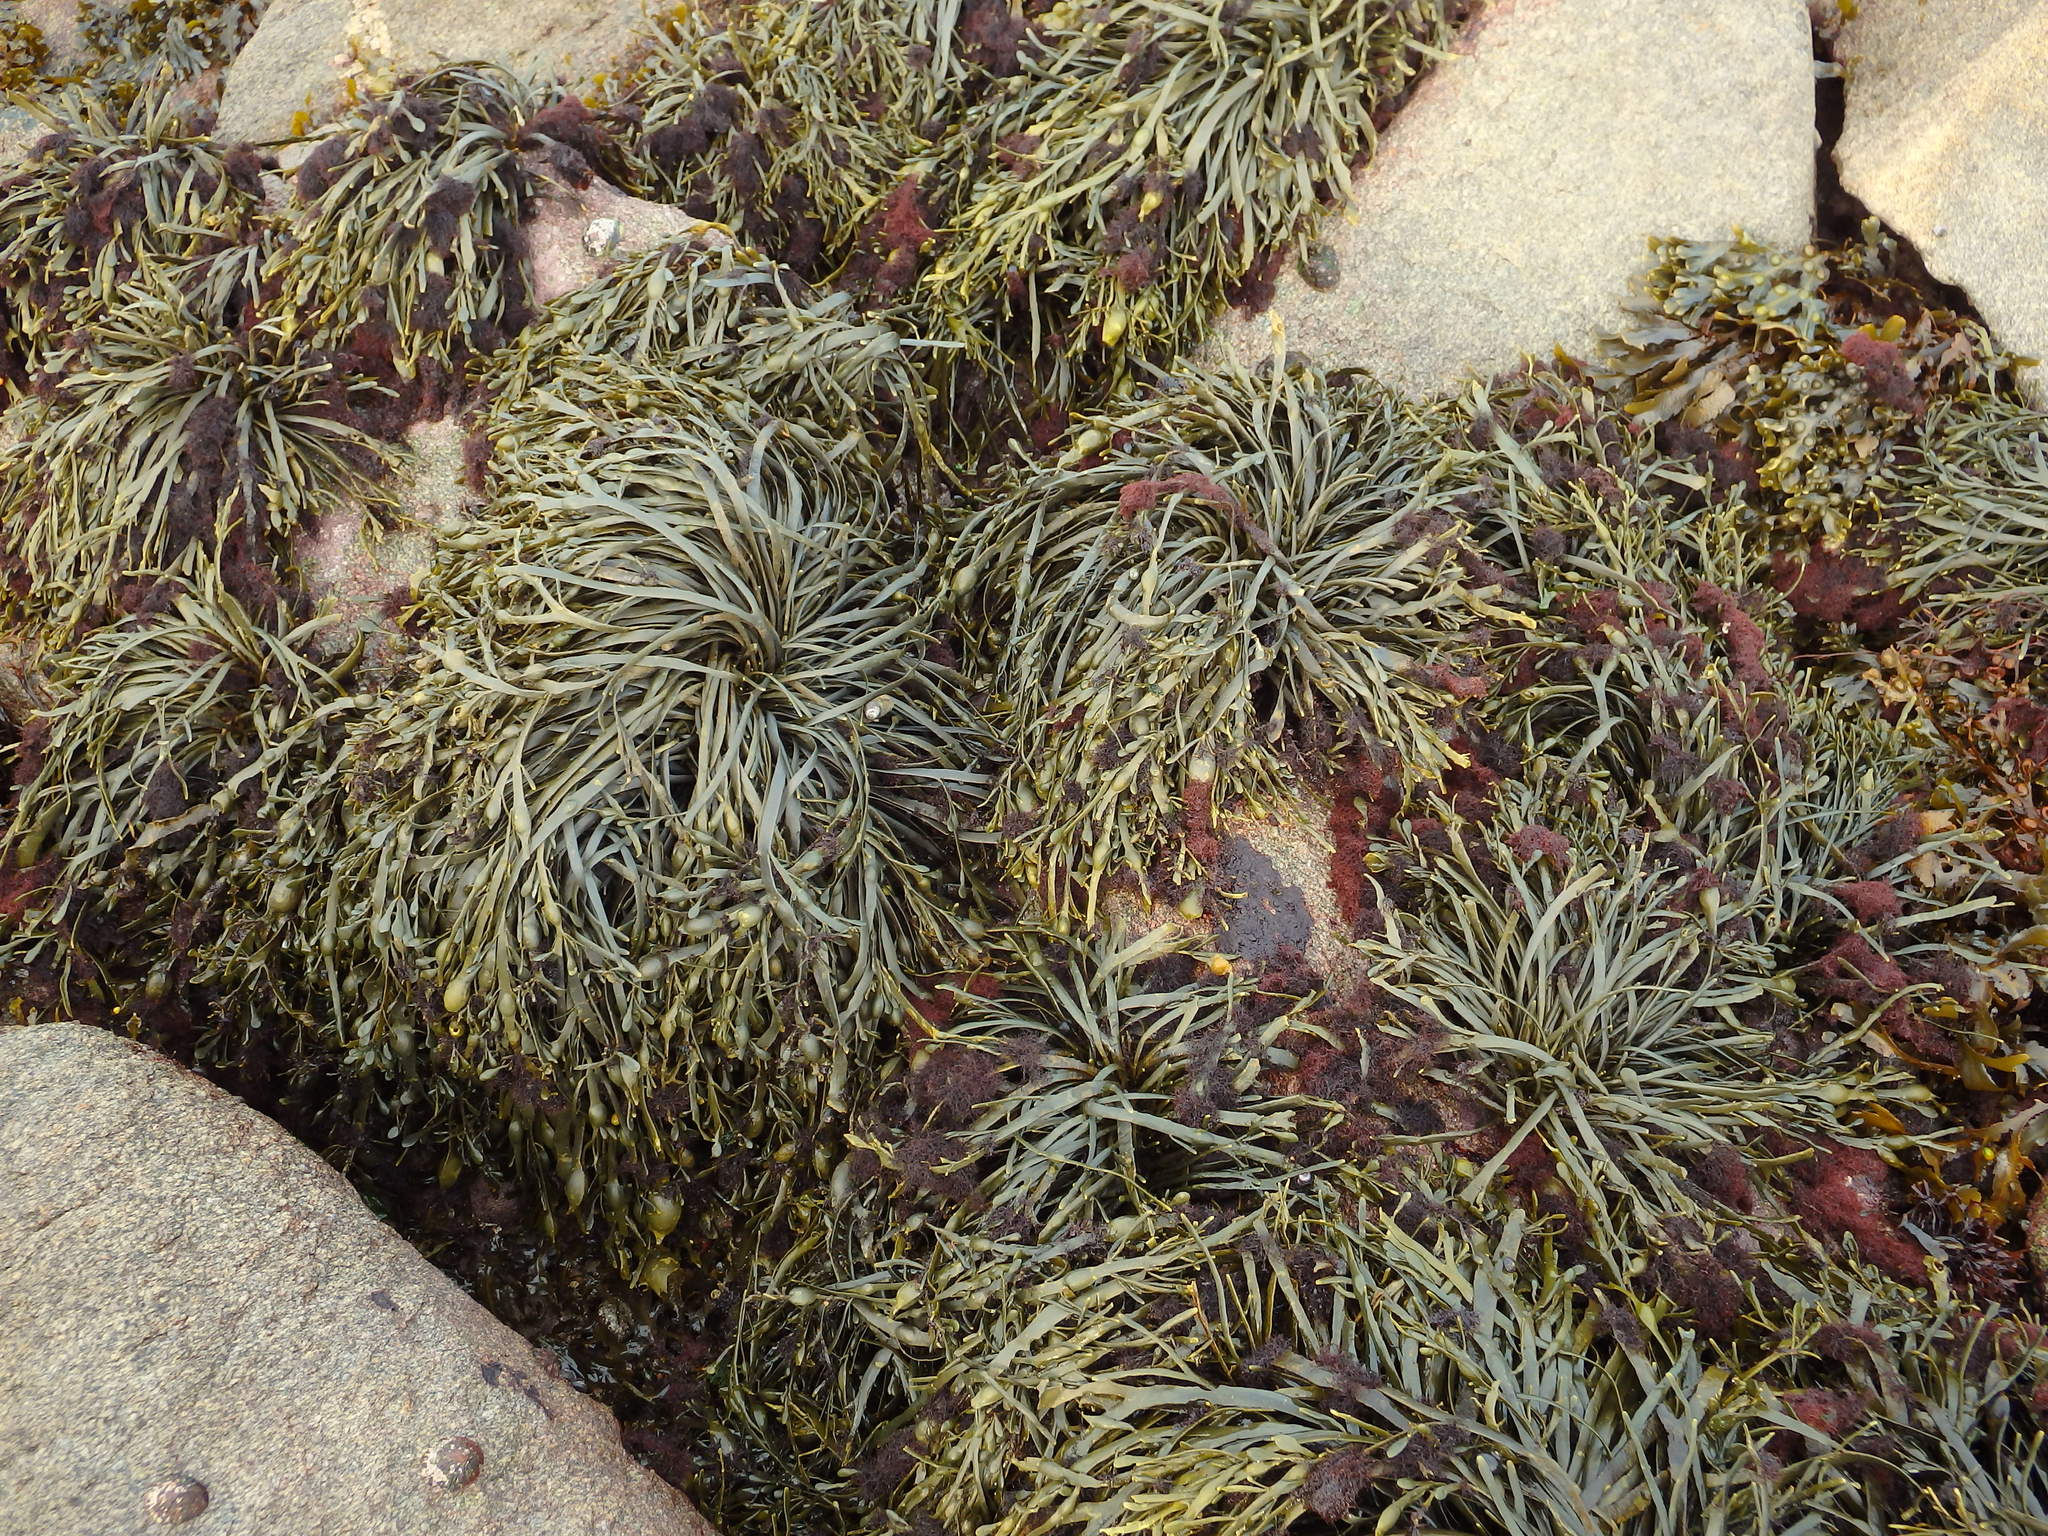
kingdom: Plantae
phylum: Rhodophyta
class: Florideophyceae
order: Ceramiales
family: Rhodomelaceae
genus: Vertebrata
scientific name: Vertebrata lanosa
